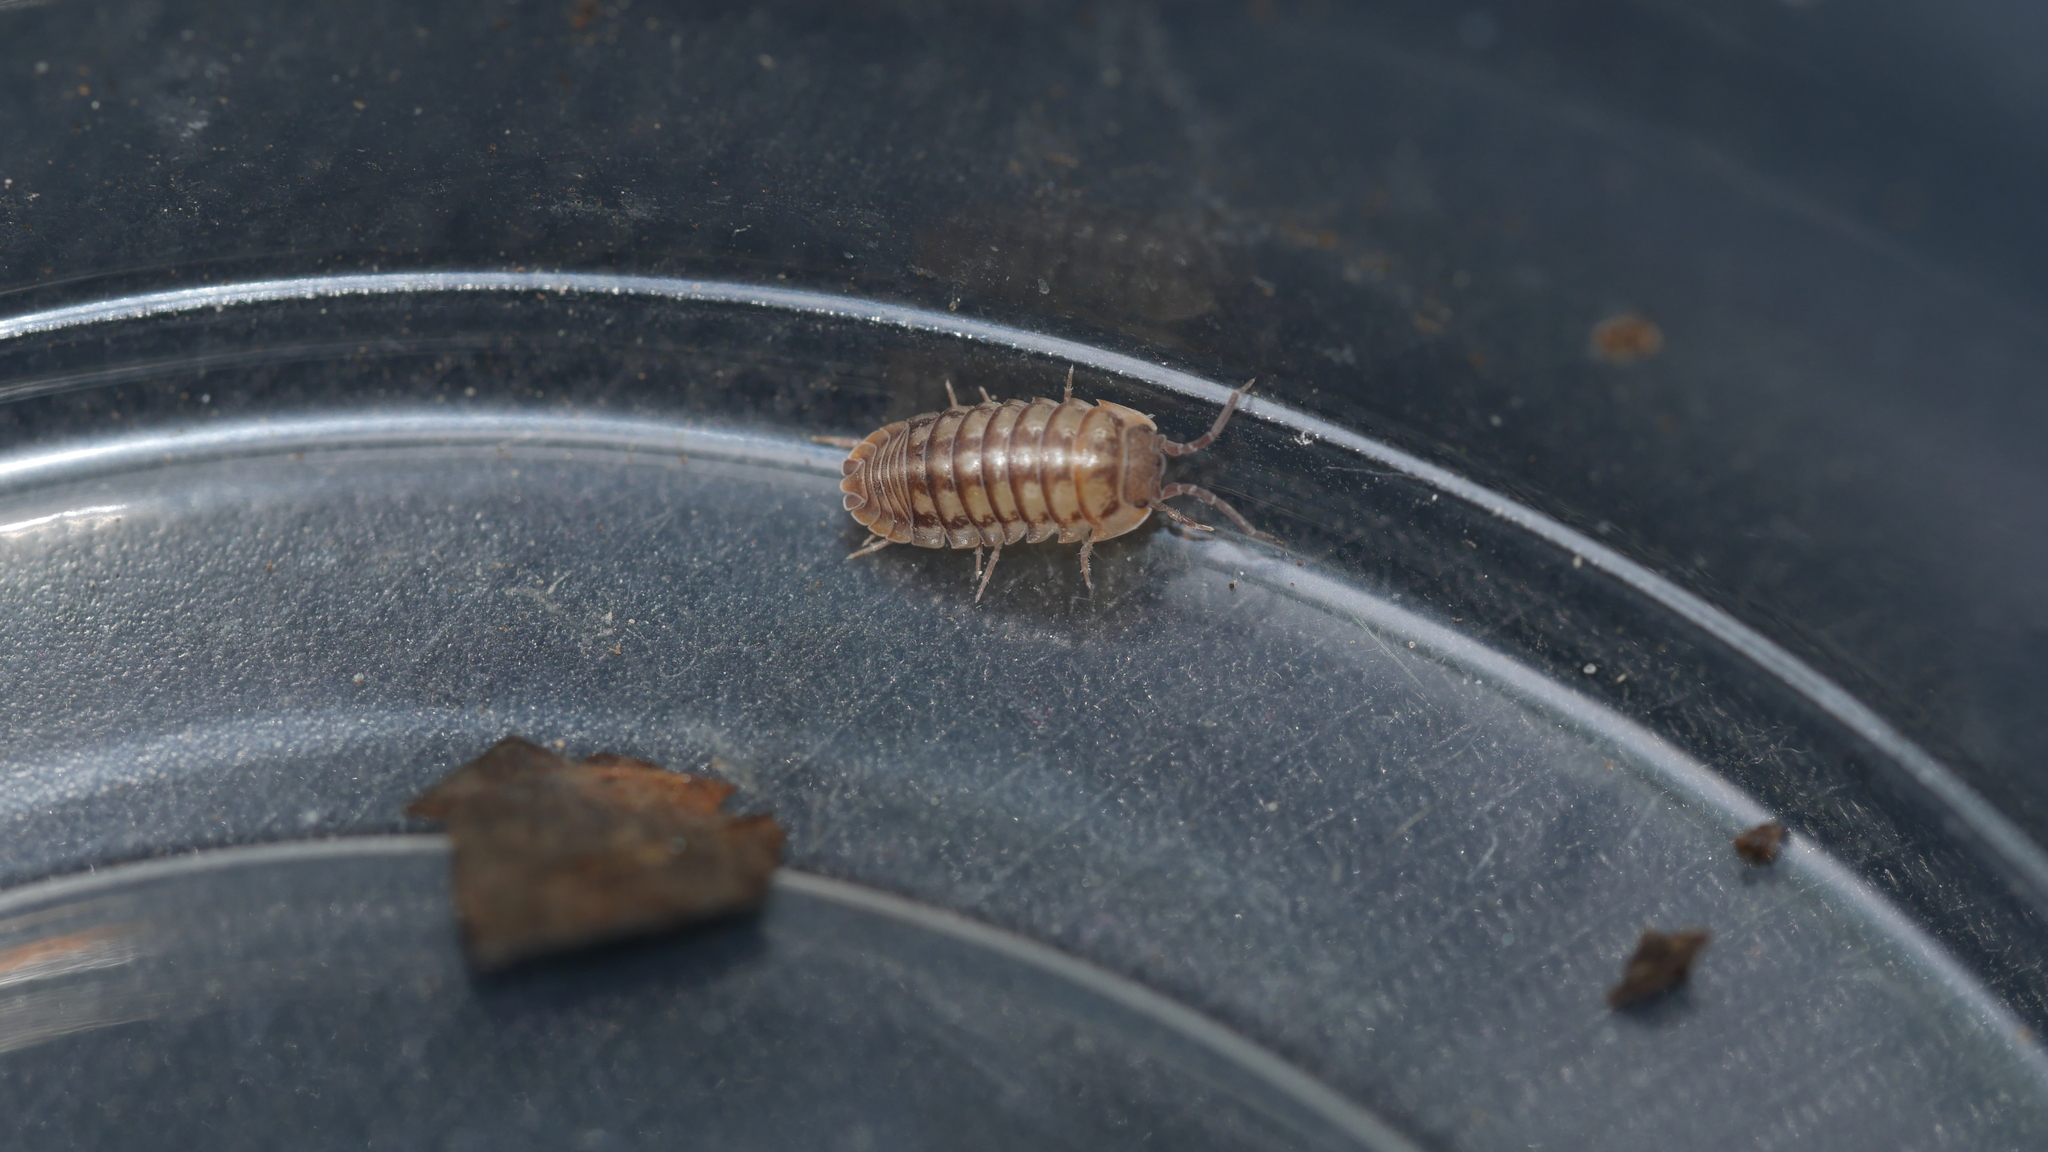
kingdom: Animalia
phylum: Arthropoda
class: Malacostraca
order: Isopoda
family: Armadillidiidae
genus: Armadillidium
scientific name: Armadillidium nasatum
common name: Isopod
